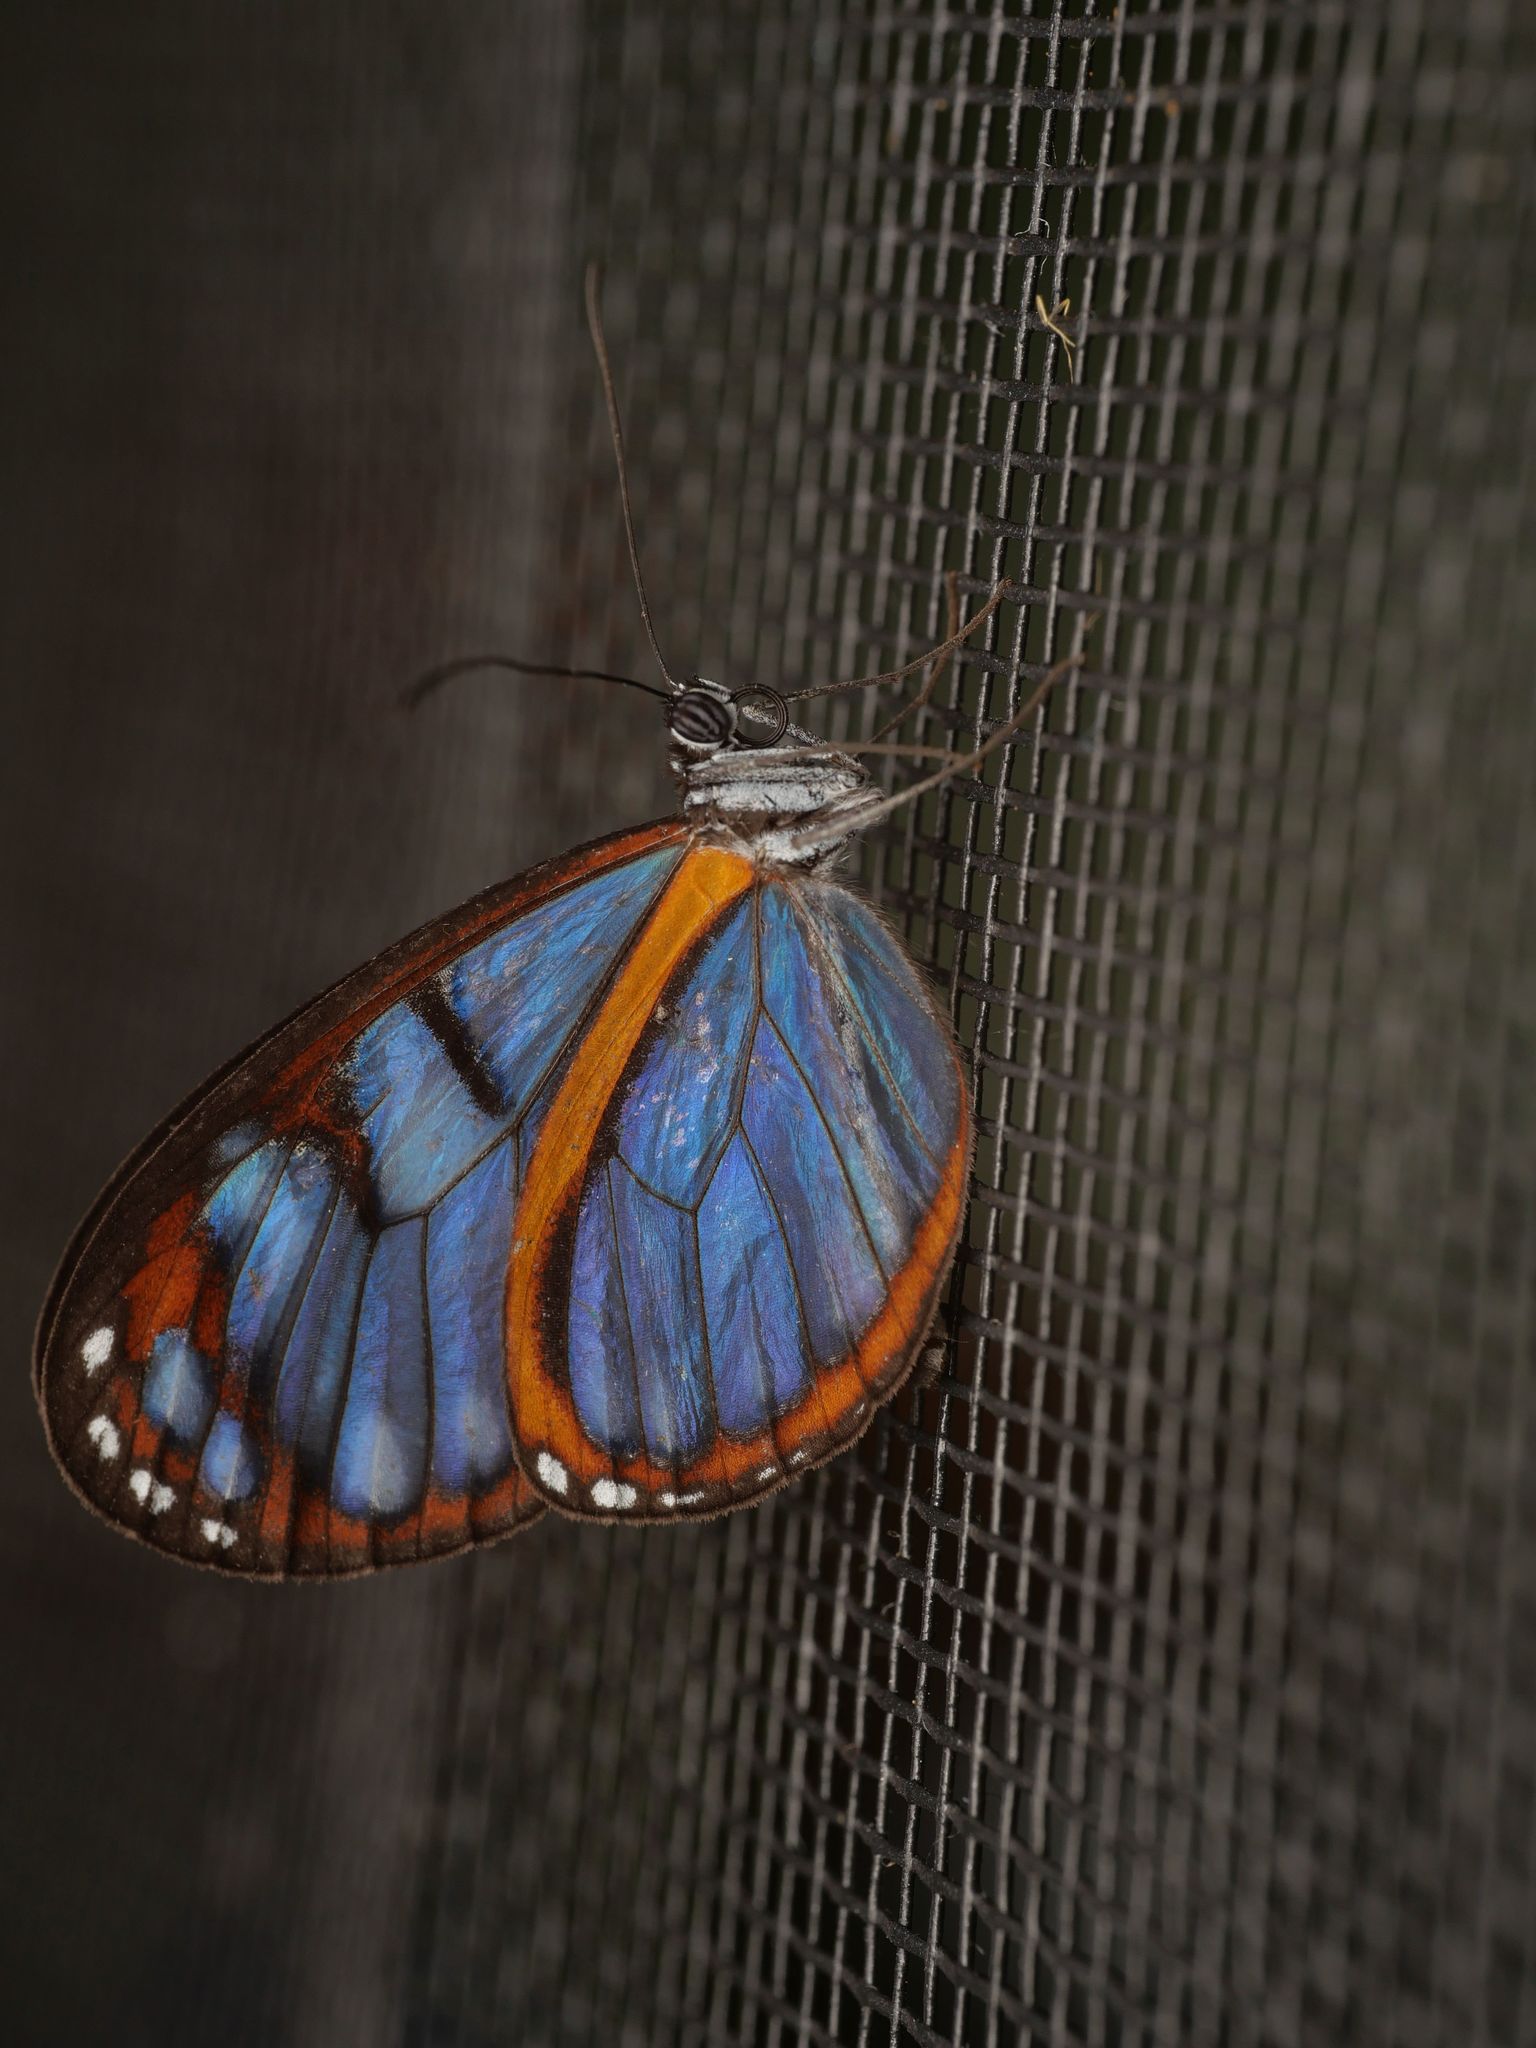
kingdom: Animalia
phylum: Arthropoda
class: Insecta
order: Lepidoptera
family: Nymphalidae
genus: Oleria
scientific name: Oleria amalda
